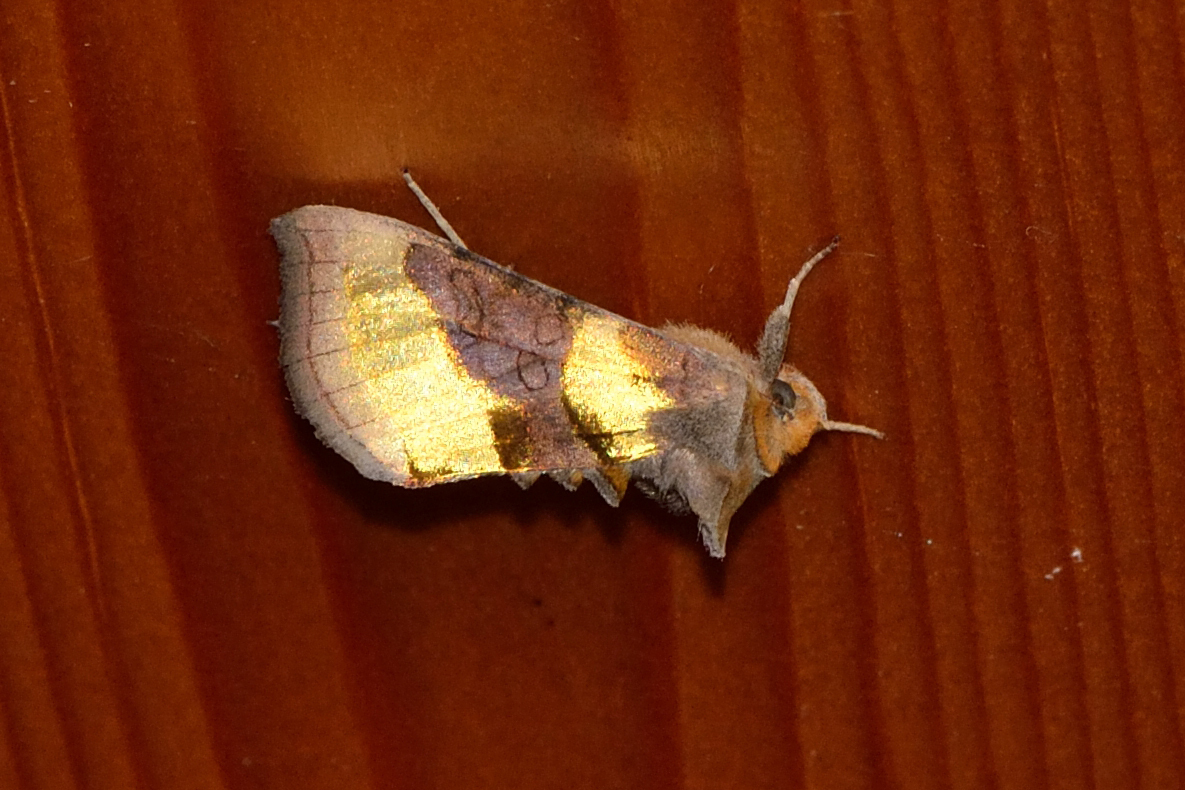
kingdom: Animalia
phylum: Arthropoda
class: Insecta
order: Lepidoptera
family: Noctuidae
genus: Diachrysia
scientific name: Diachrysia chrysitis
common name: Burnished brass
